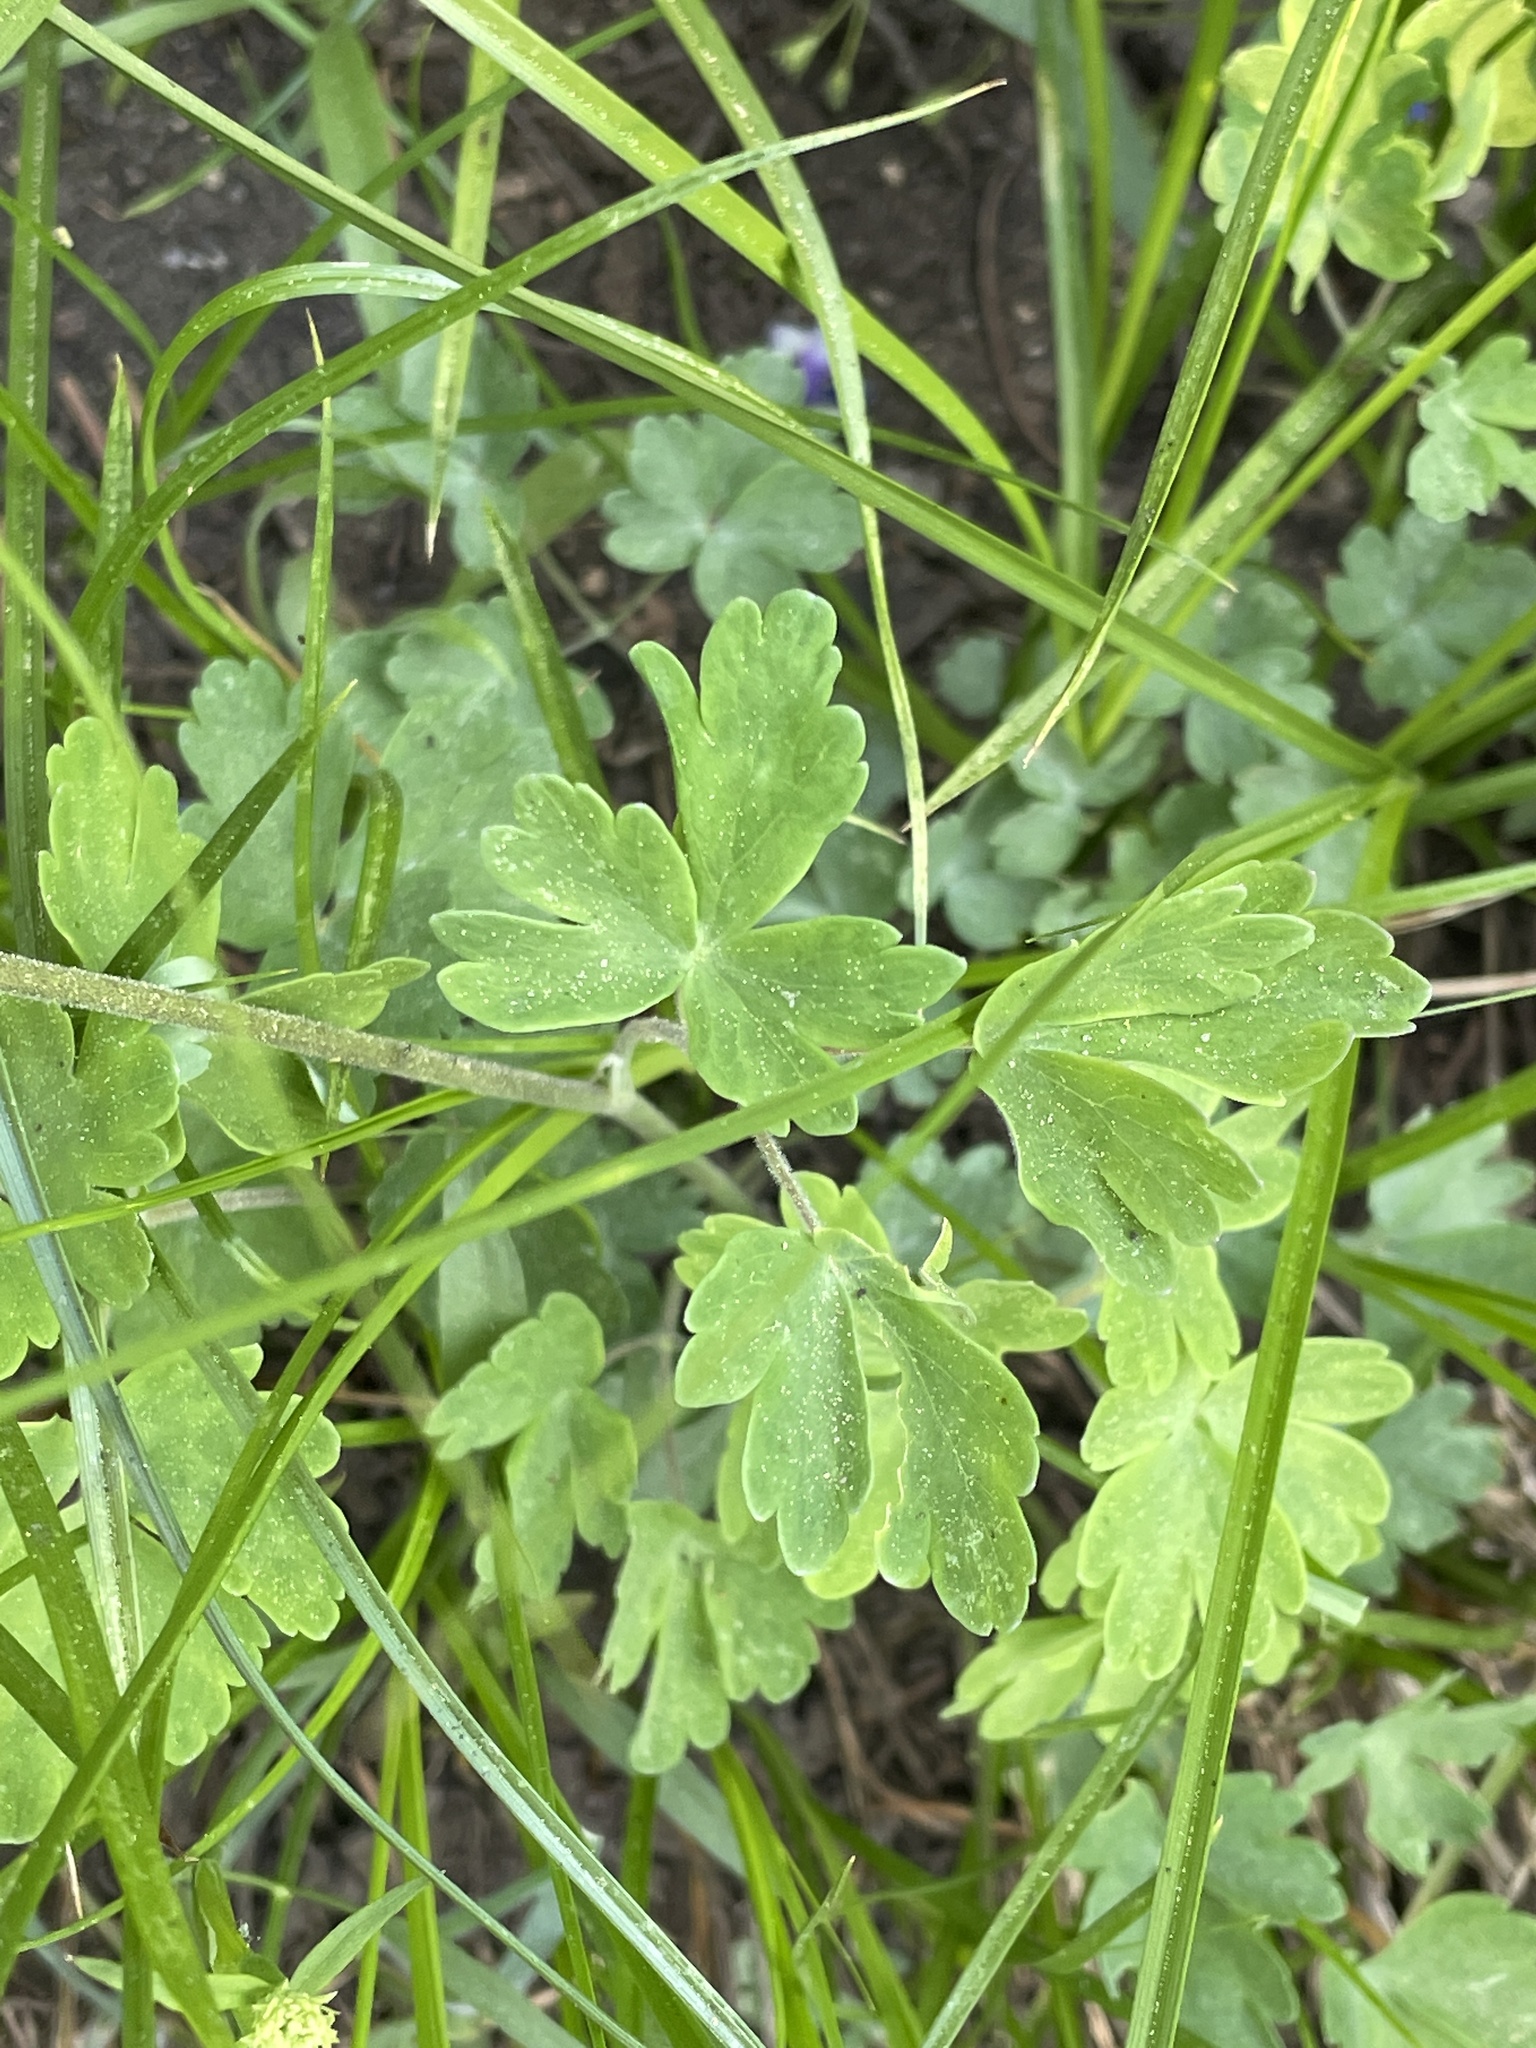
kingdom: Plantae
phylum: Tracheophyta
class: Magnoliopsida
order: Ranunculales
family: Ranunculaceae
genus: Aquilegia
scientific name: Aquilegia formosa
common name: Sitka columbine
